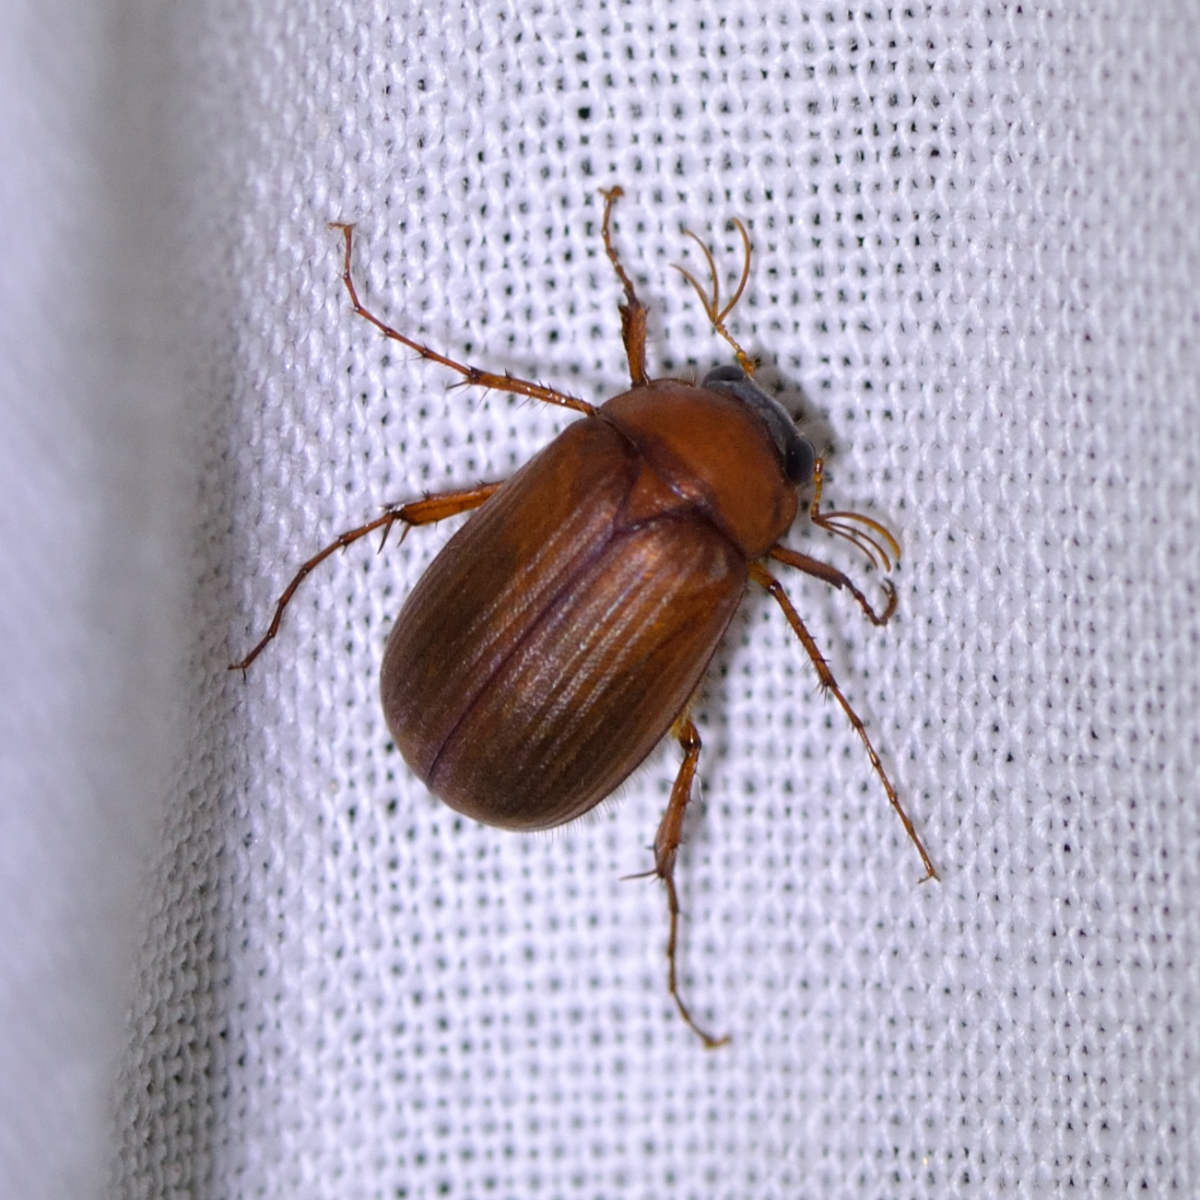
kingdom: Animalia
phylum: Arthropoda
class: Insecta
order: Coleoptera
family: Scarabaeidae
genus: Serica
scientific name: Serica brunnea
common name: Brown chafer
